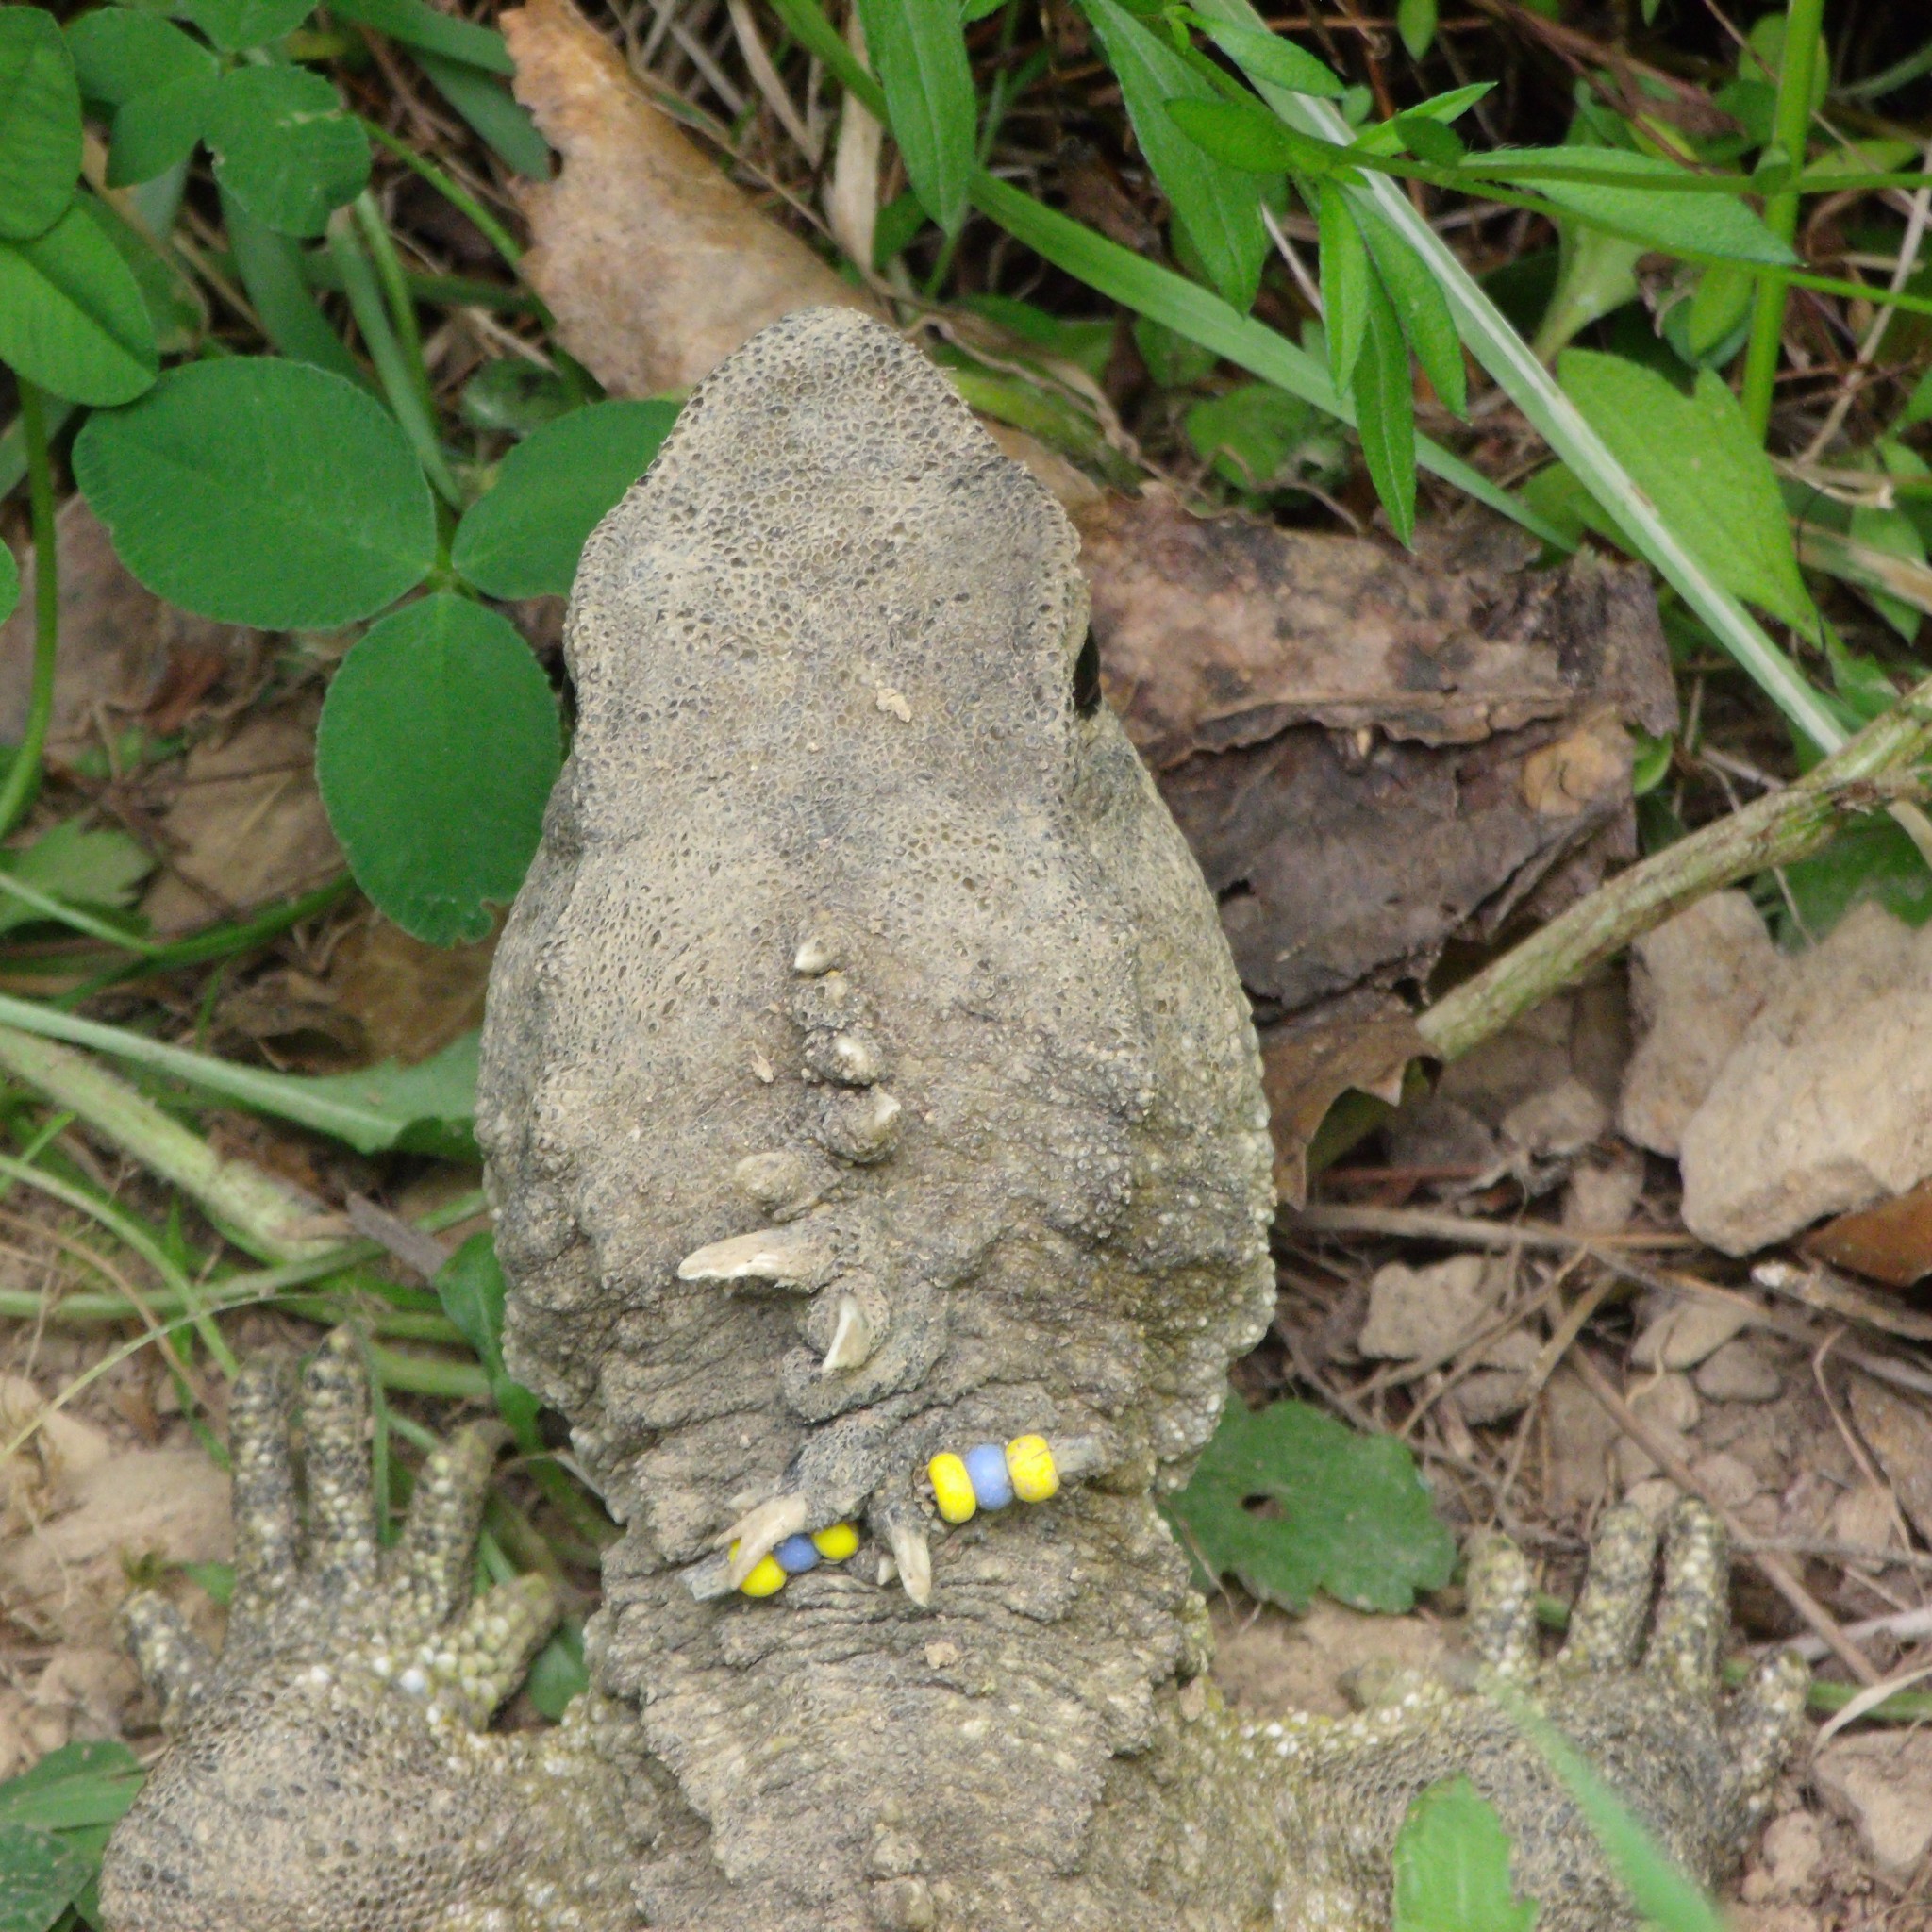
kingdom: Animalia
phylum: Chordata
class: Sphenodontia
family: Sphenodontidae
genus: Sphenodon
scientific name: Sphenodon punctatus
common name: Tuatara
